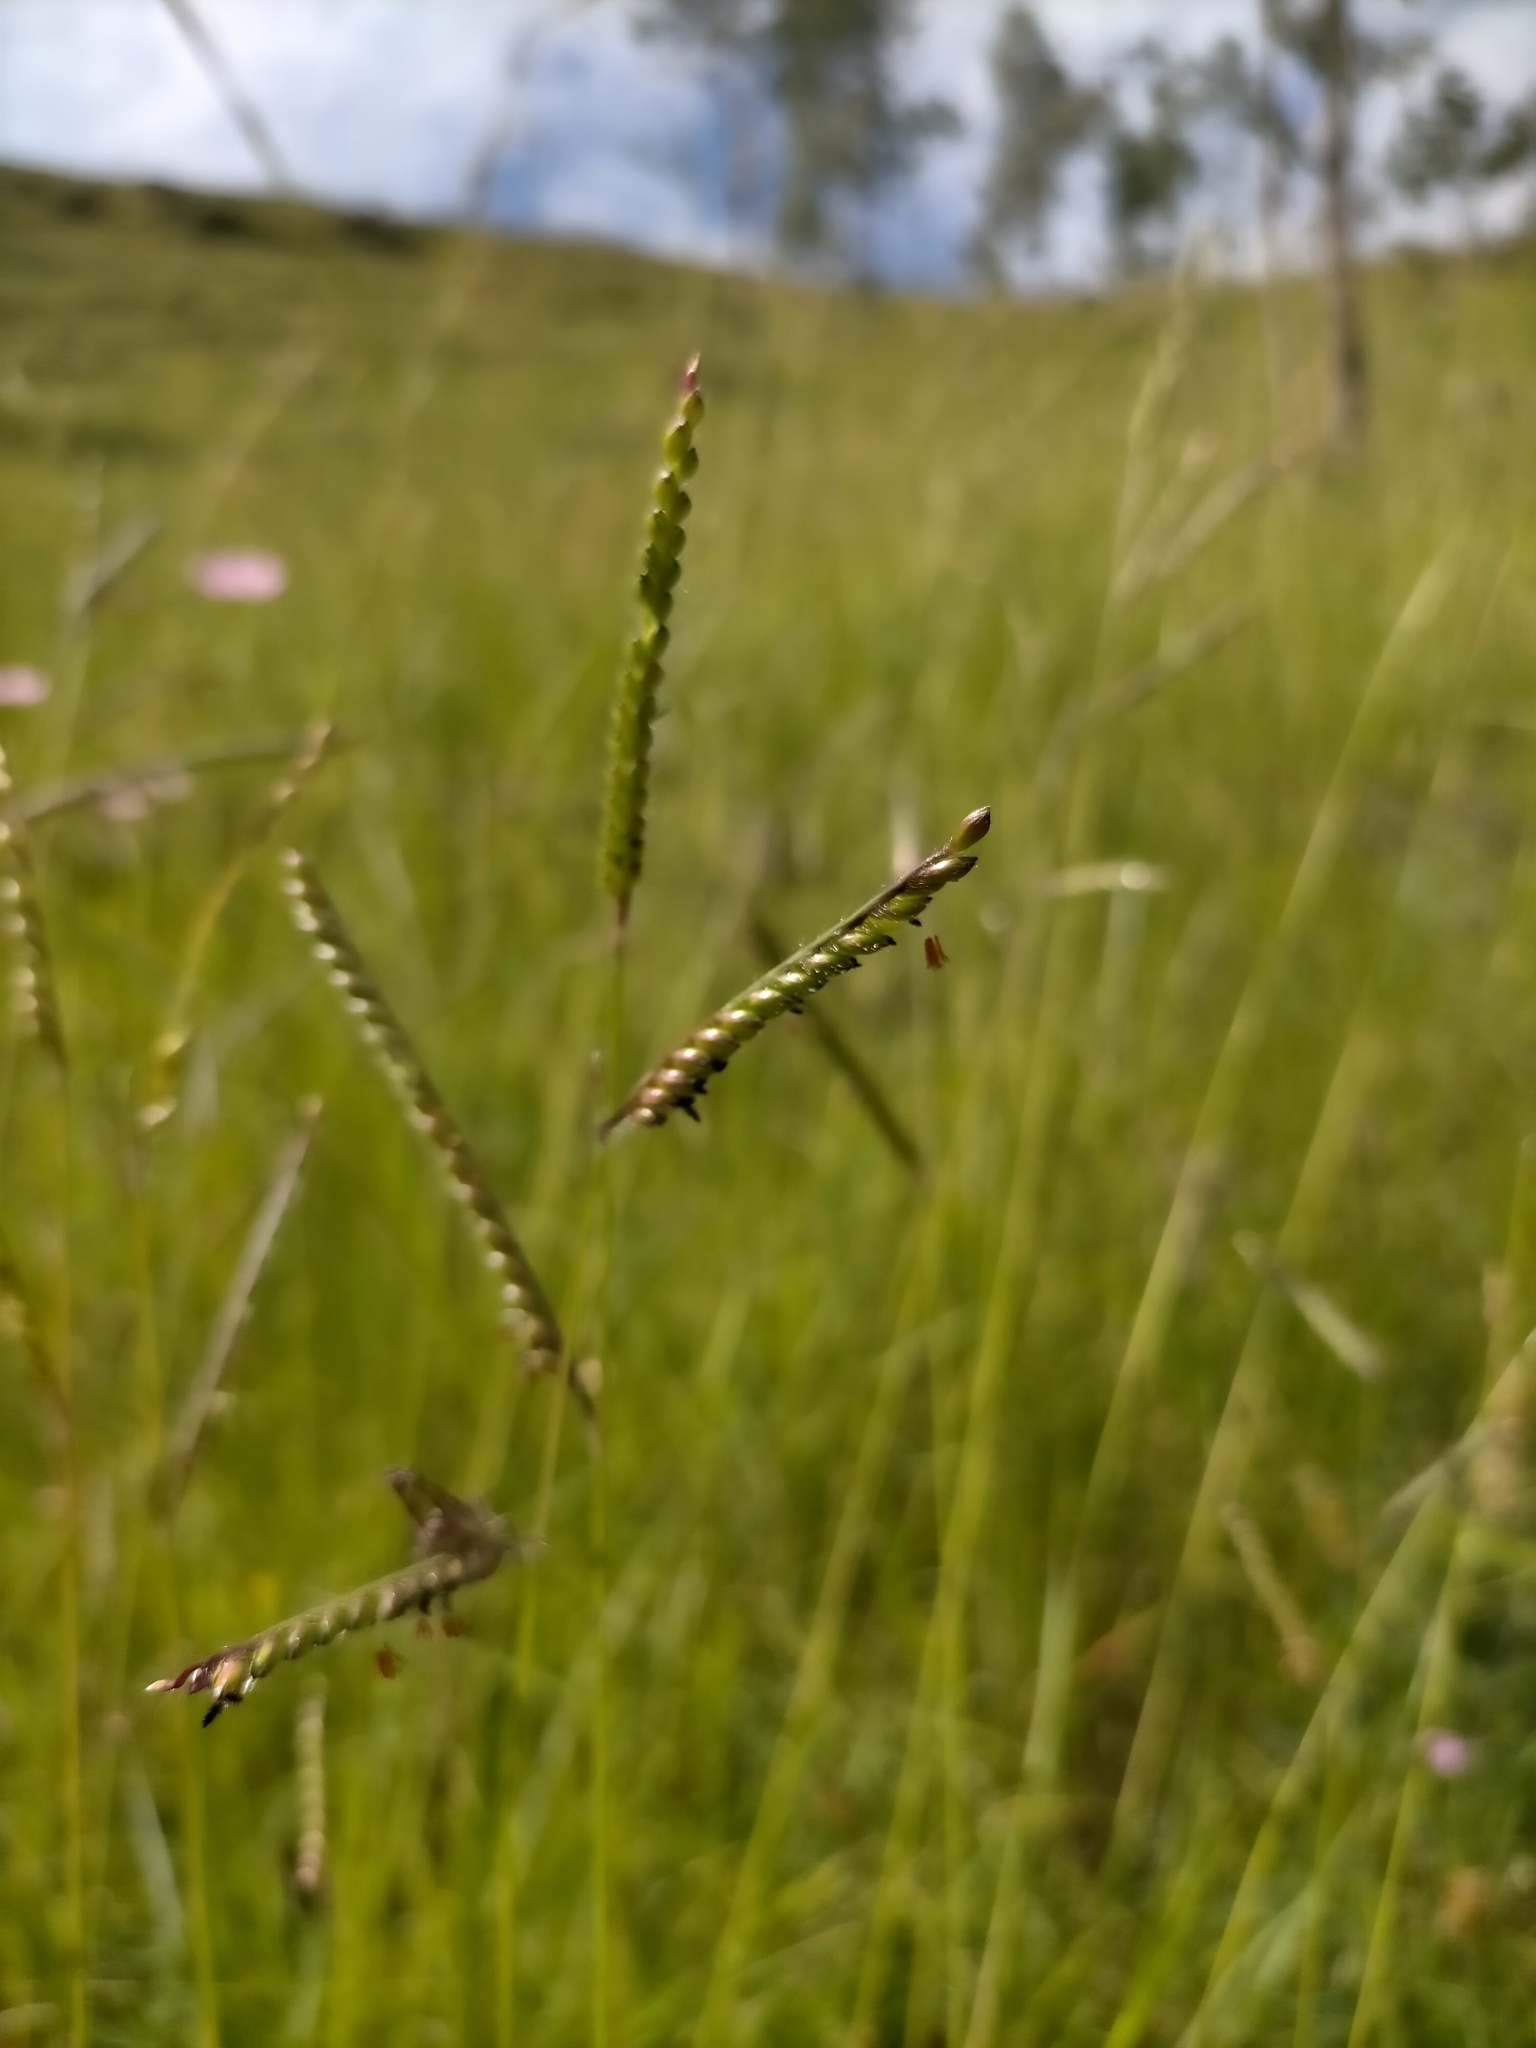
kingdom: Plantae
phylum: Tracheophyta
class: Liliopsida
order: Poales
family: Poaceae
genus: Urochloa
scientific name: Urochloa brizantha
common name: Palisade signalgrass
